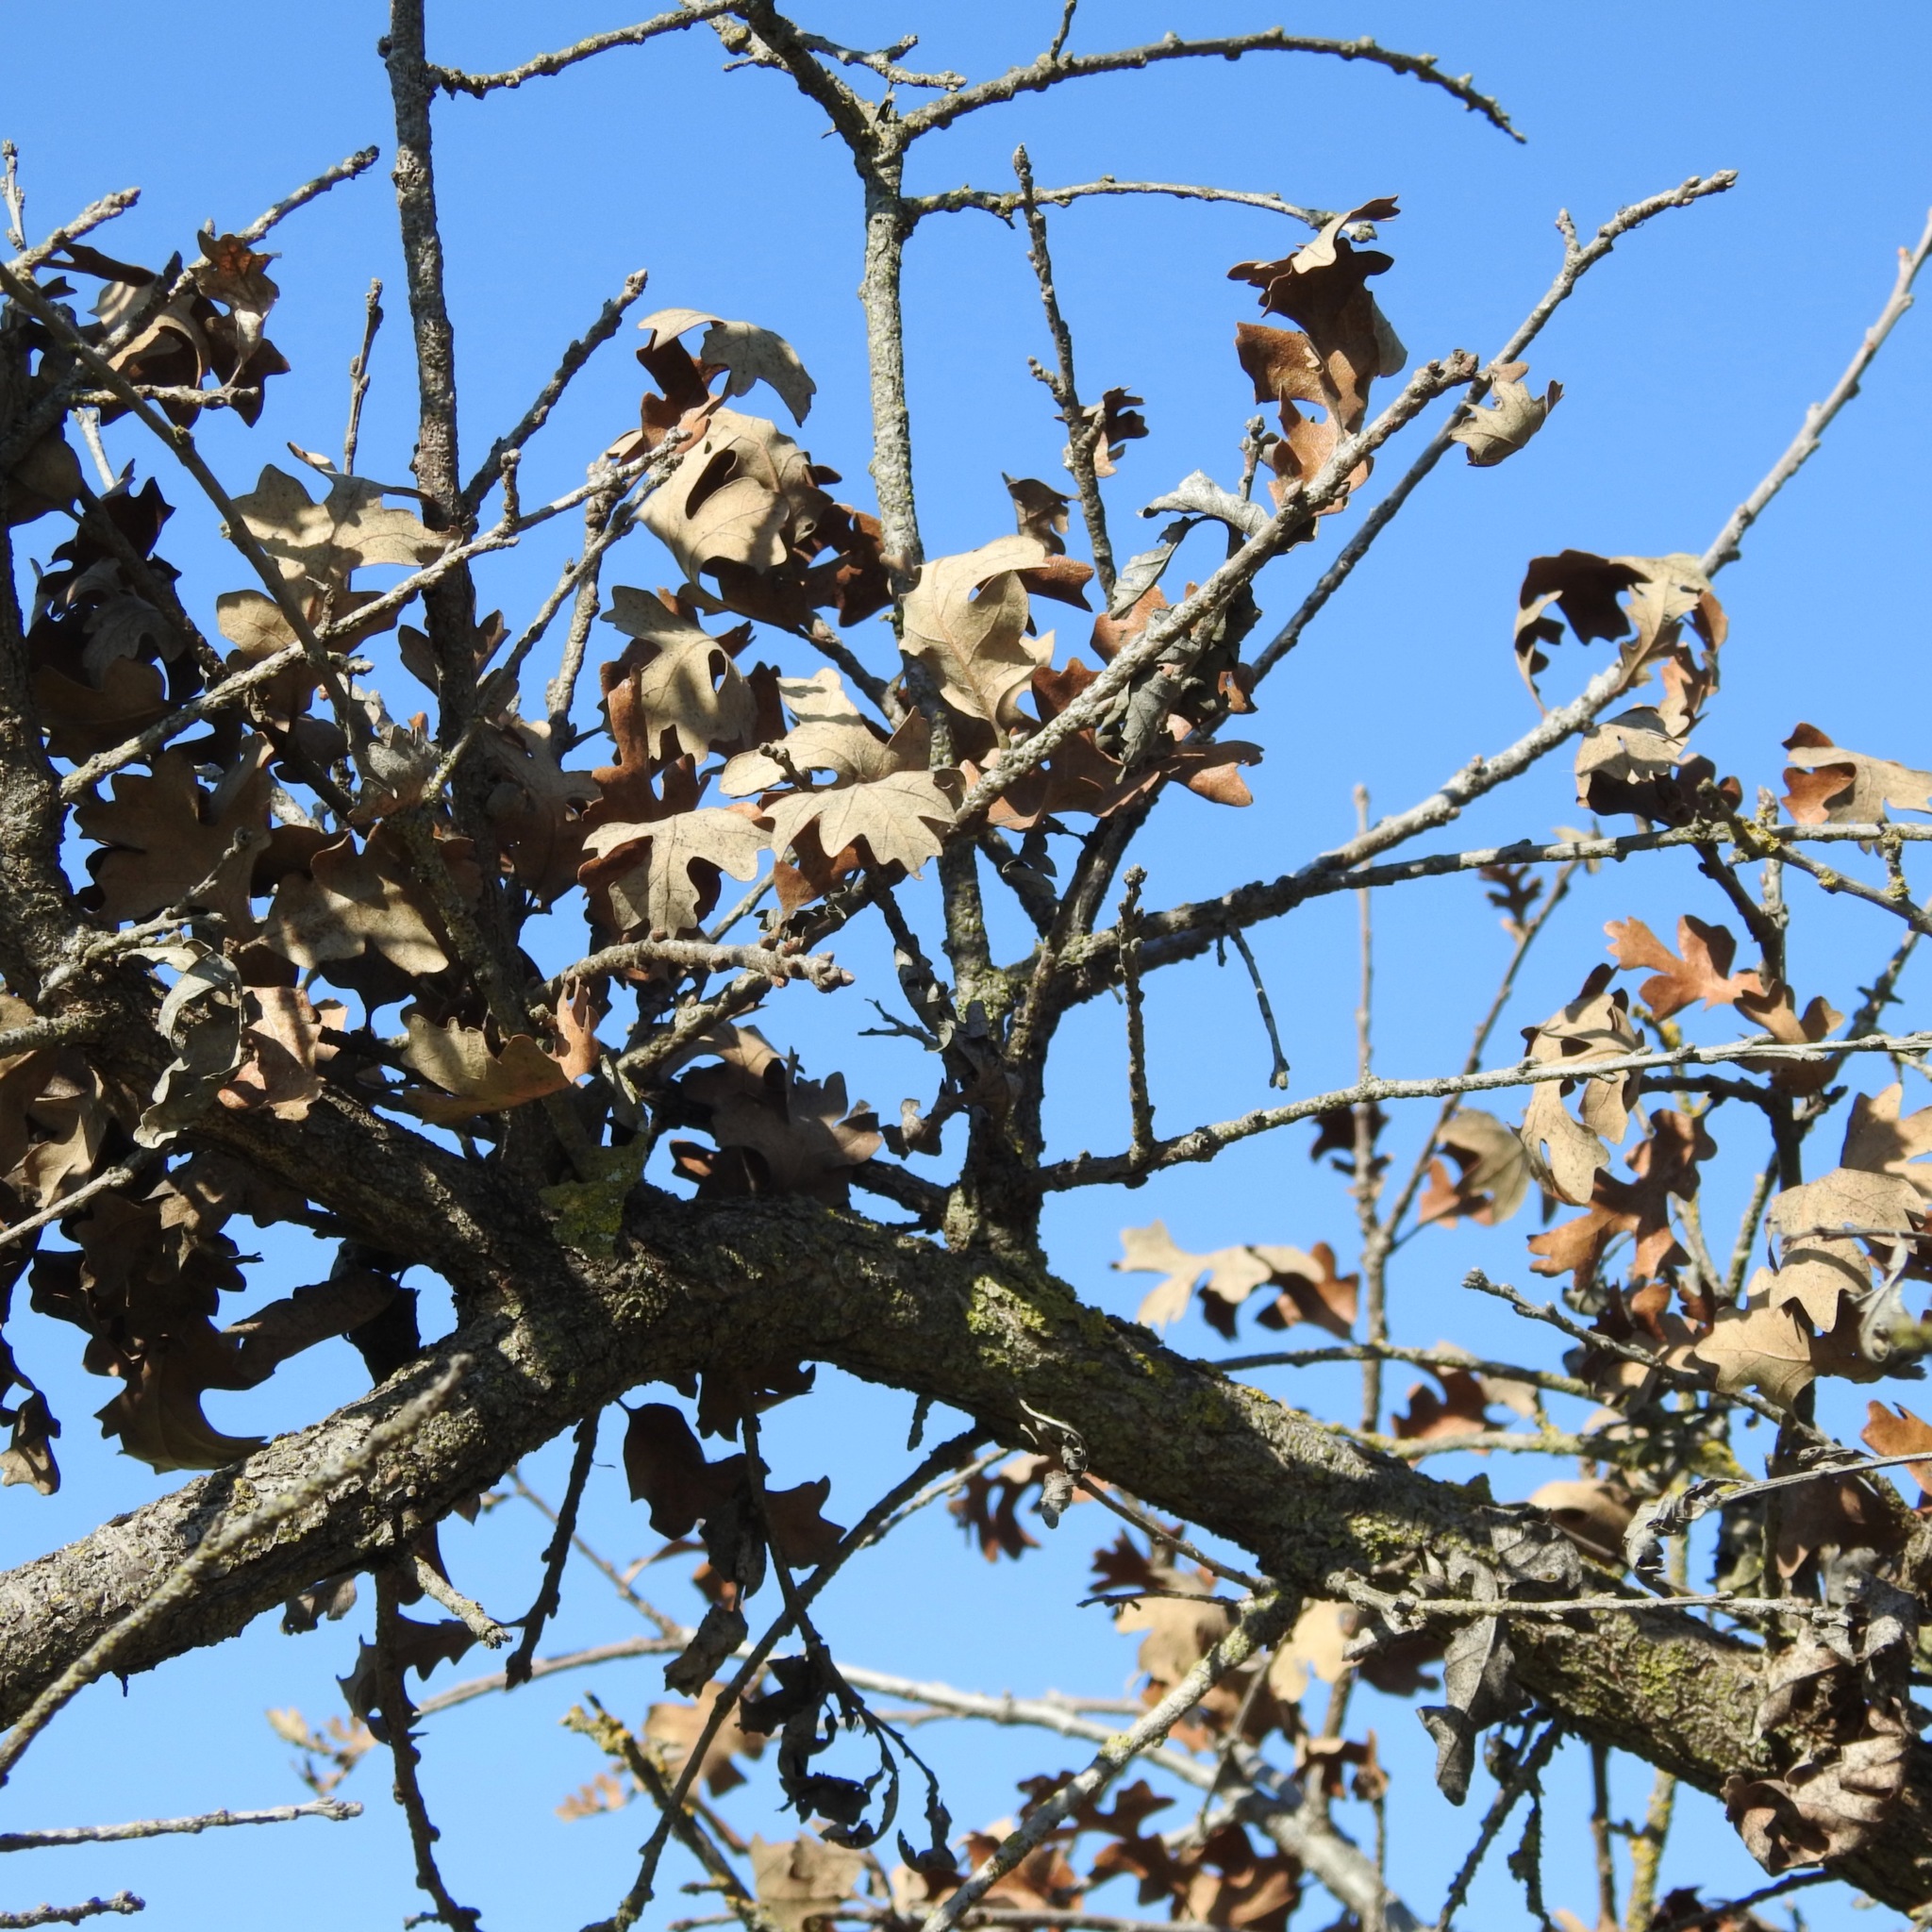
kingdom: Plantae
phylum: Tracheophyta
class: Magnoliopsida
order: Fagales
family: Fagaceae
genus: Quercus
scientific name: Quercus lobata
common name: Valley oak
